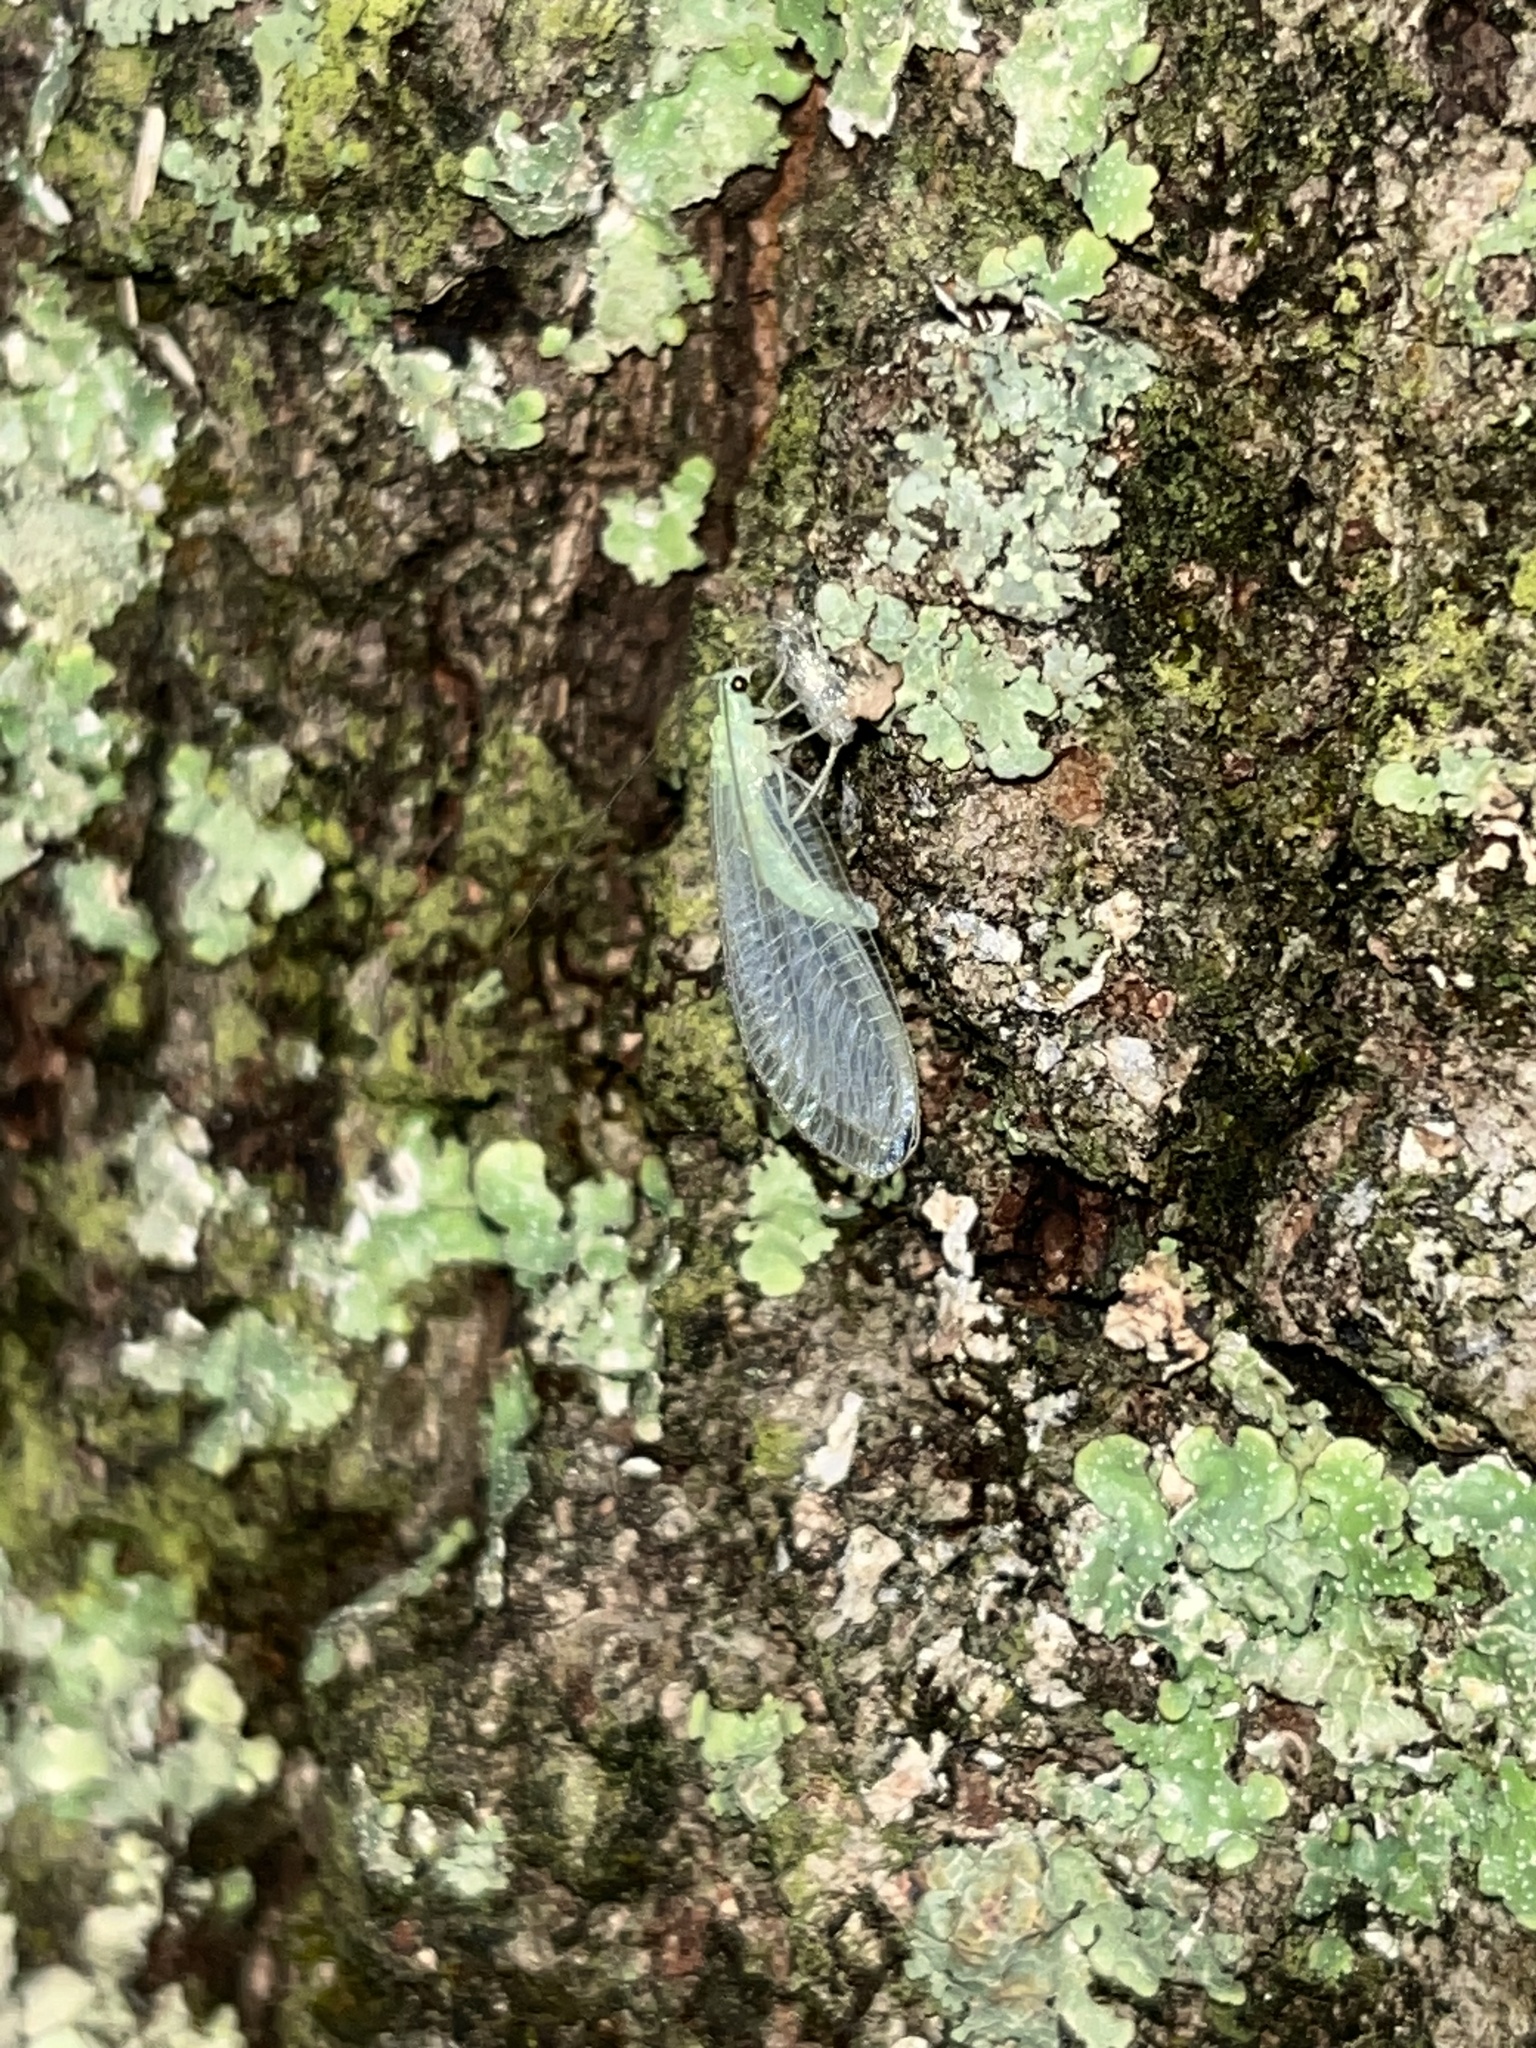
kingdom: Animalia
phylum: Arthropoda
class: Insecta
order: Neuroptera
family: Chrysopidae
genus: Chrysopa
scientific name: Chrysopa nigricornis
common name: Black-horned green lacewing
